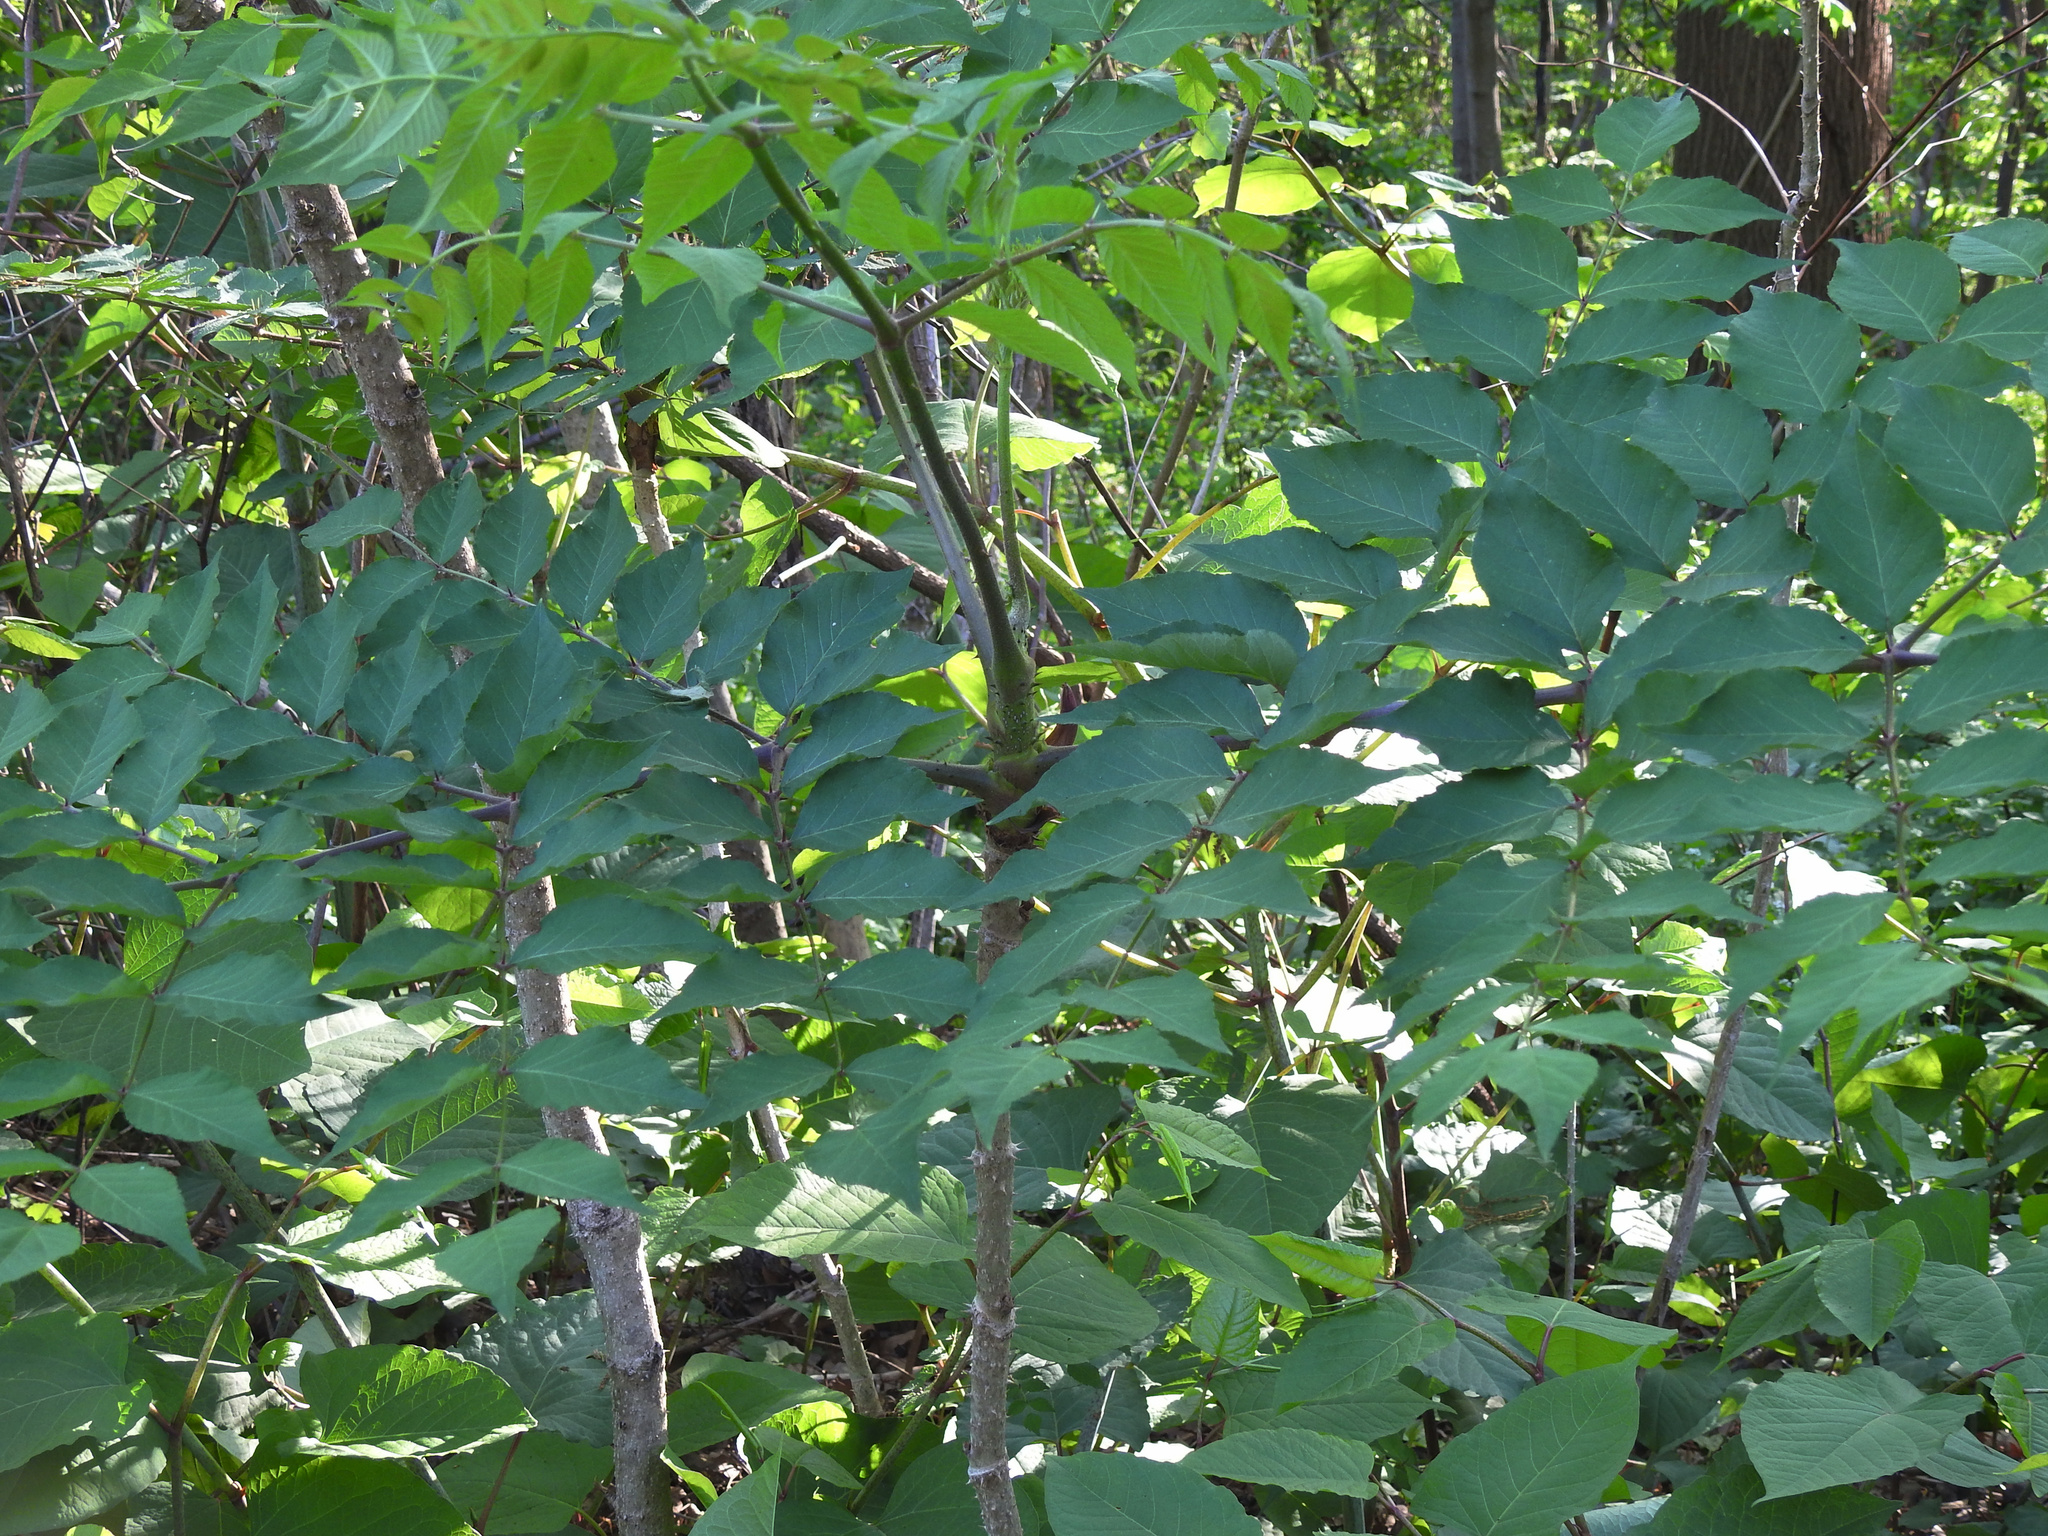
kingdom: Plantae
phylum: Tracheophyta
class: Magnoliopsida
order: Apiales
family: Araliaceae
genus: Aralia
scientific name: Aralia elata
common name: Japanese angelica-tree
